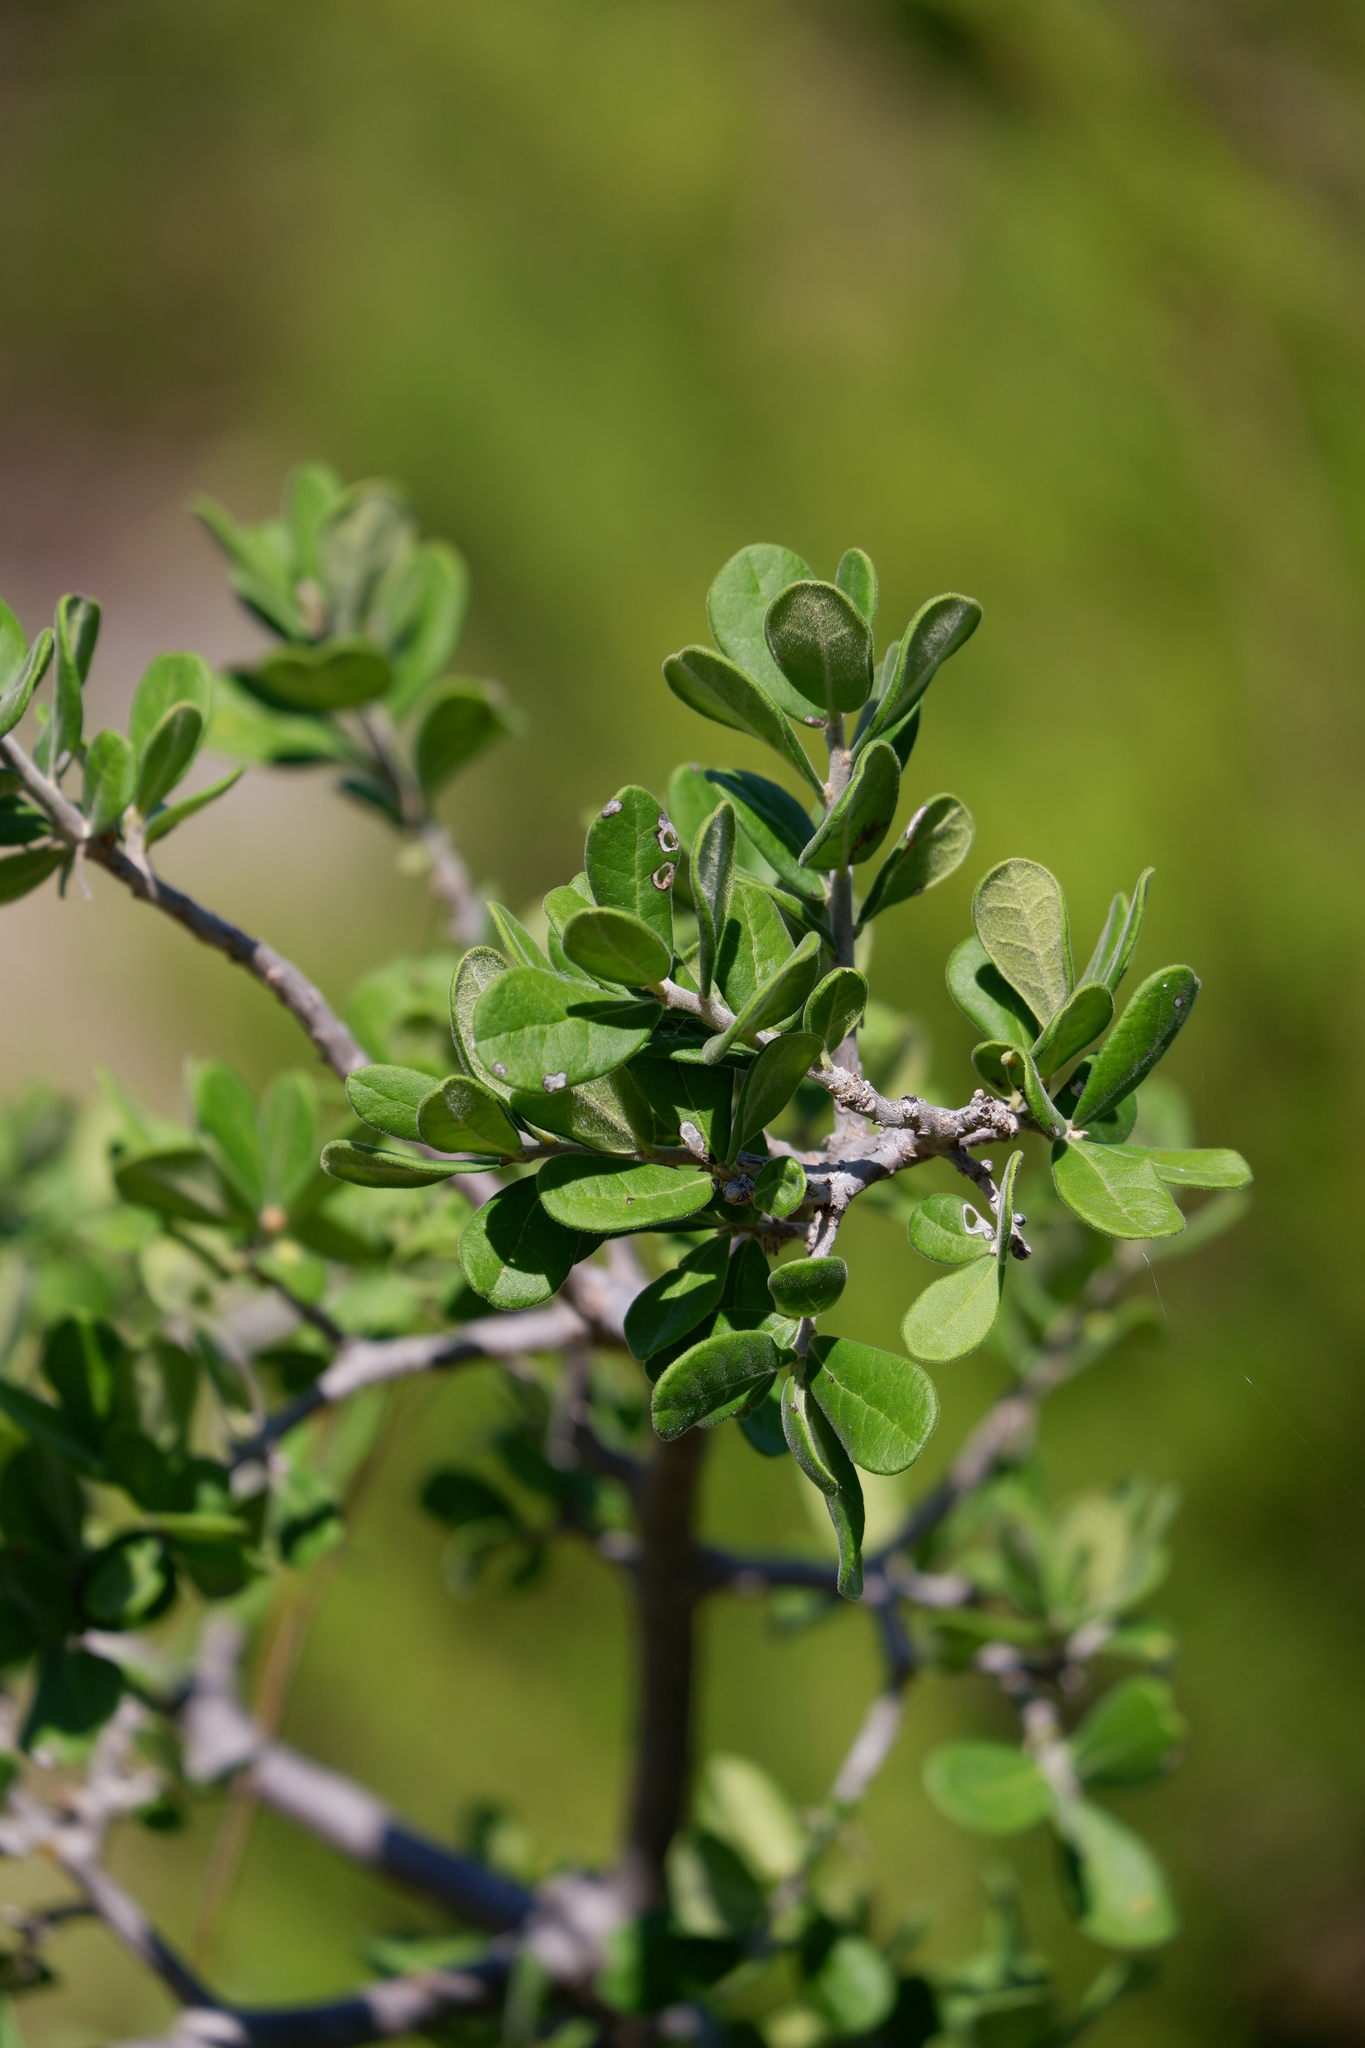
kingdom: Plantae
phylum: Tracheophyta
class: Magnoliopsida
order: Ericales
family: Ebenaceae
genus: Diospyros
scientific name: Diospyros texana
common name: Texas persimmon
